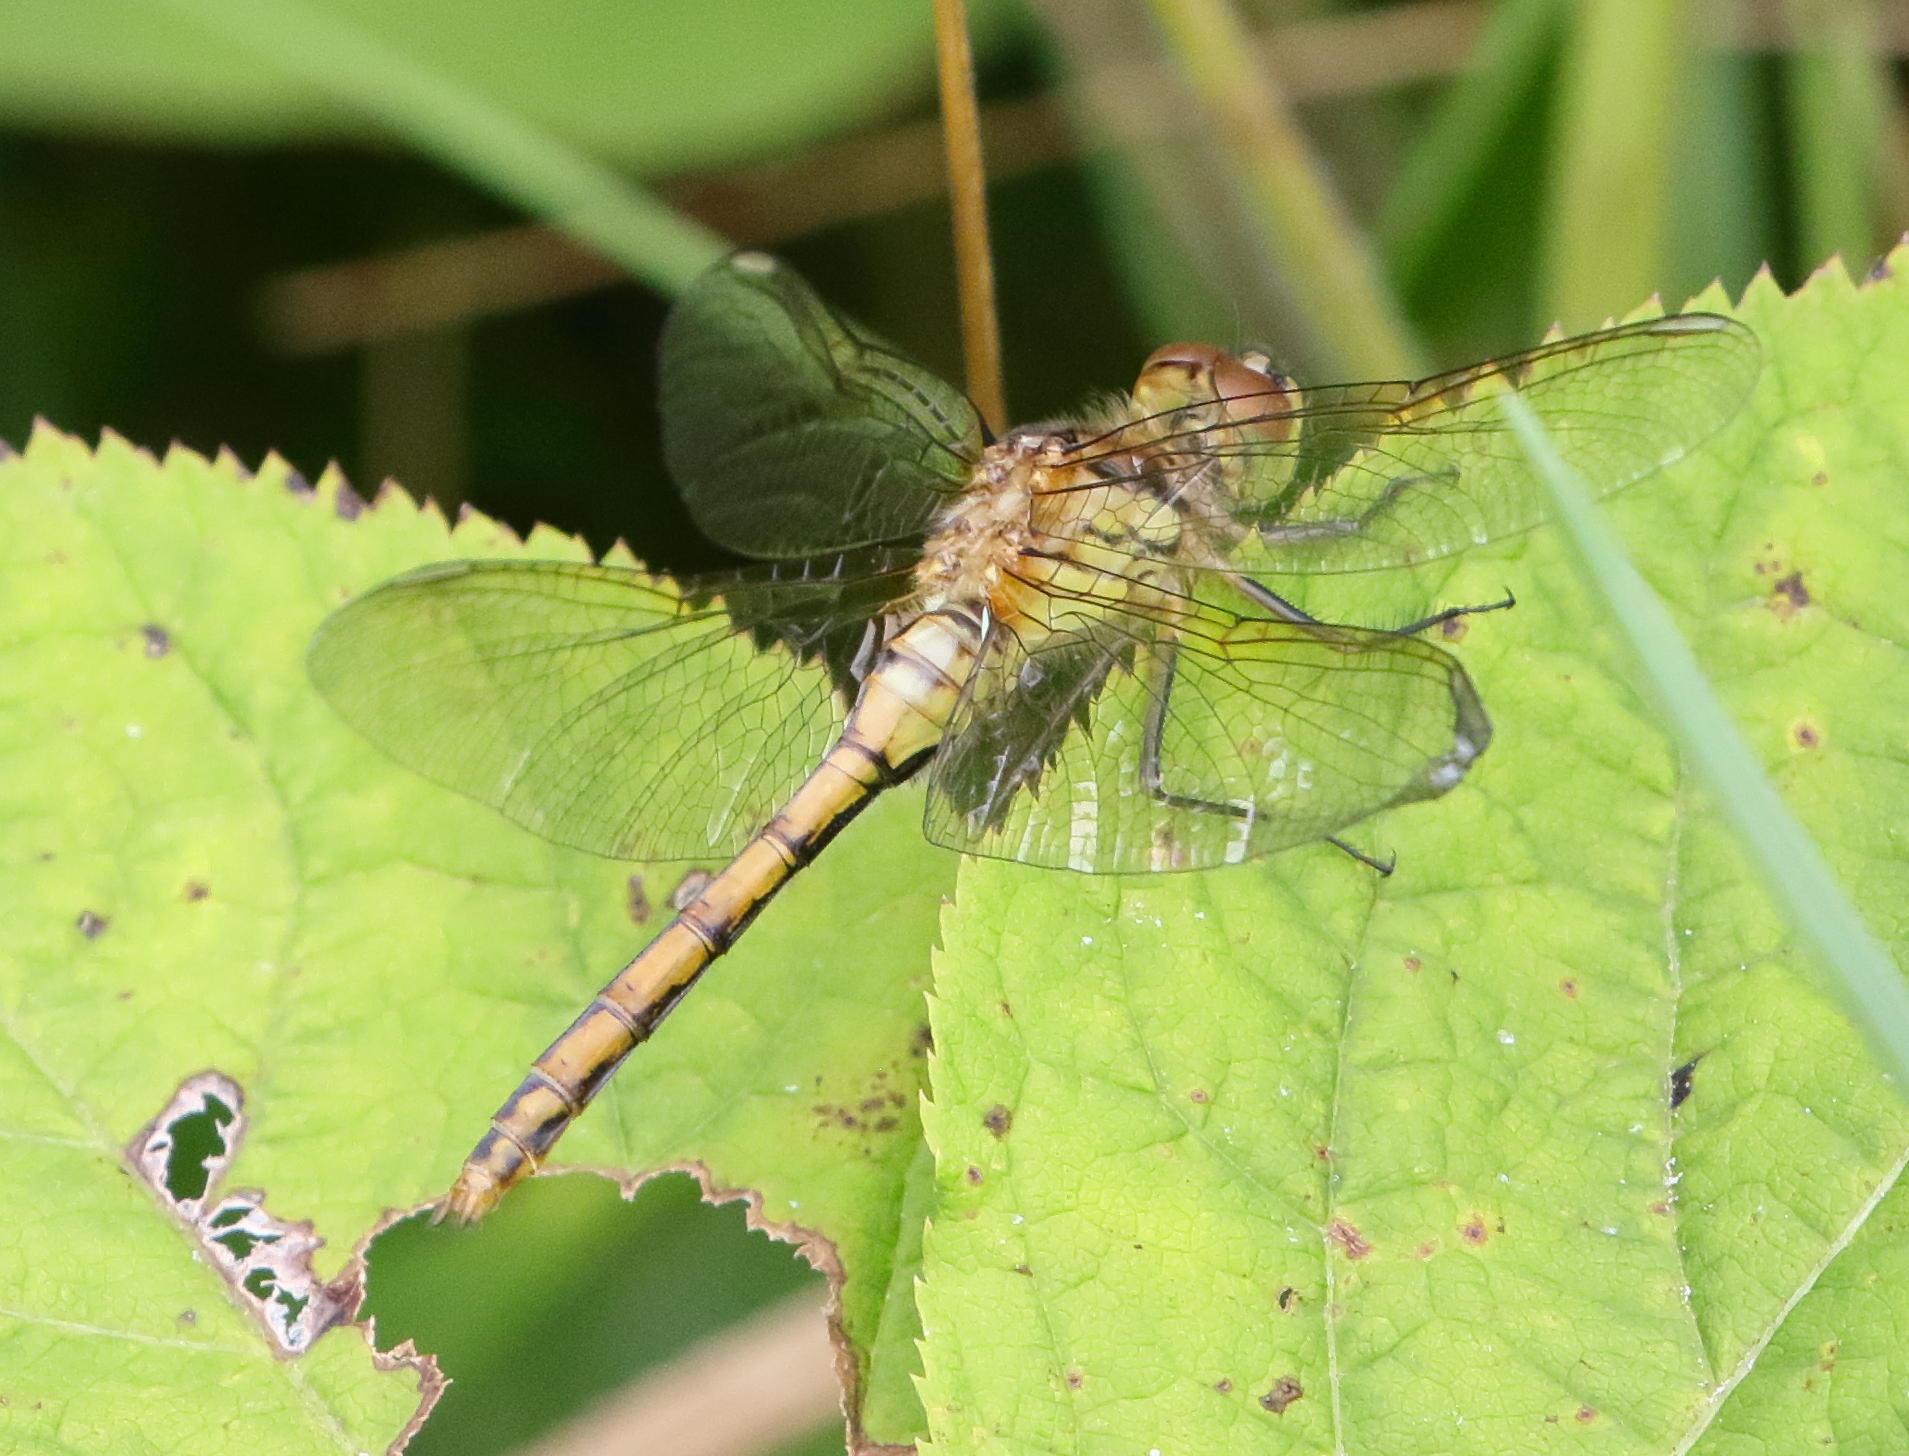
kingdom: Animalia
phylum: Arthropoda
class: Insecta
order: Odonata
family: Libellulidae
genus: Sympetrum
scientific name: Sympetrum costiferum
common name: Saffron-winged meadowhawk
